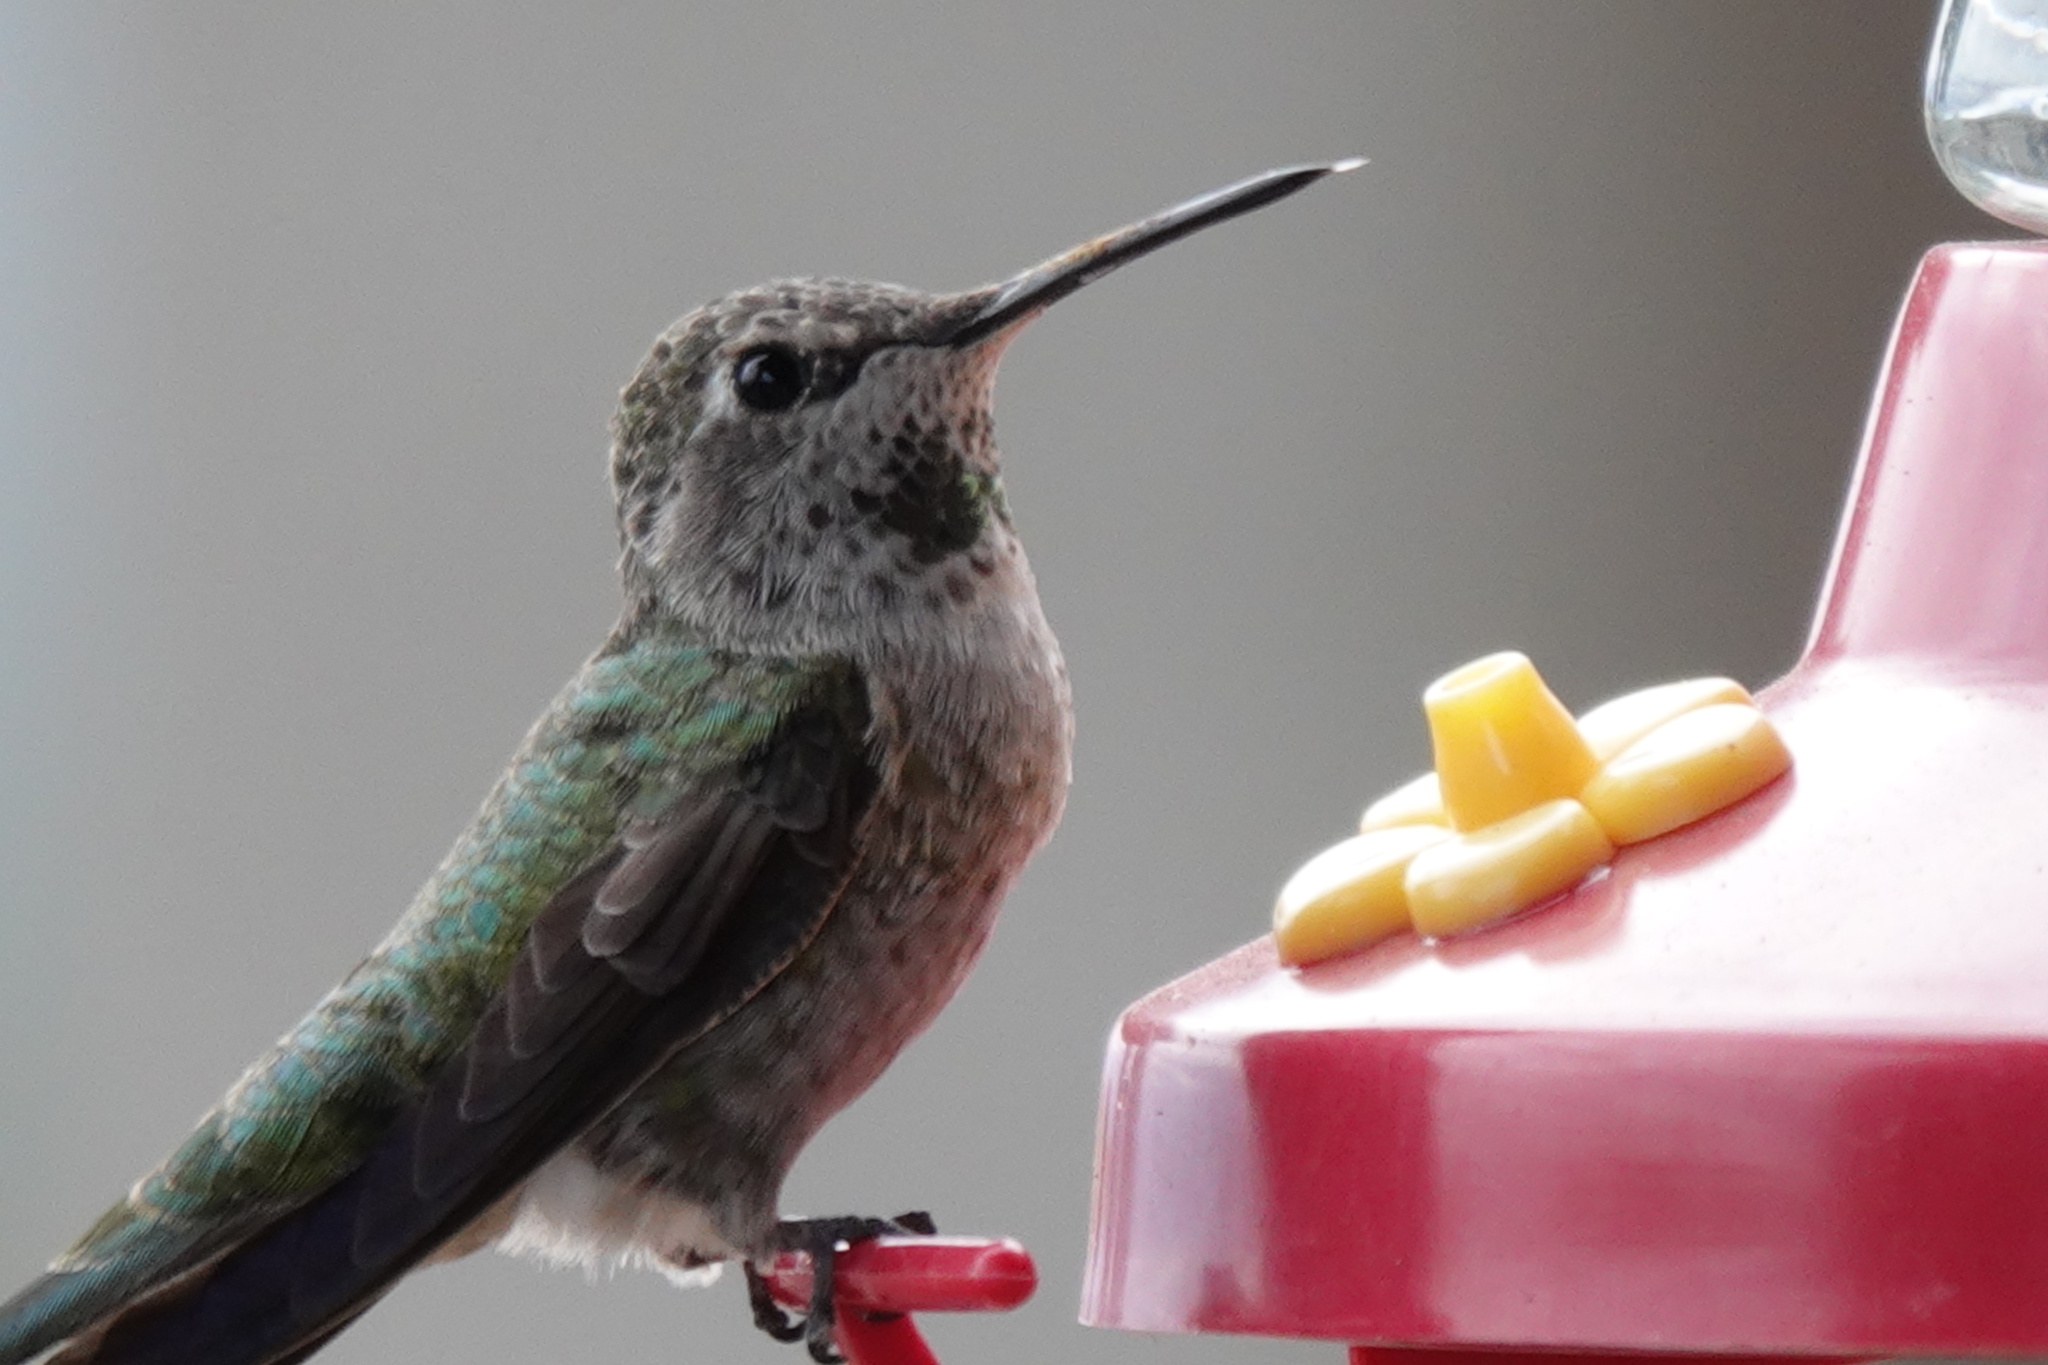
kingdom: Animalia
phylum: Chordata
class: Aves
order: Apodiformes
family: Trochilidae
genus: Calypte
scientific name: Calypte anna
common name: Anna's hummingbird
